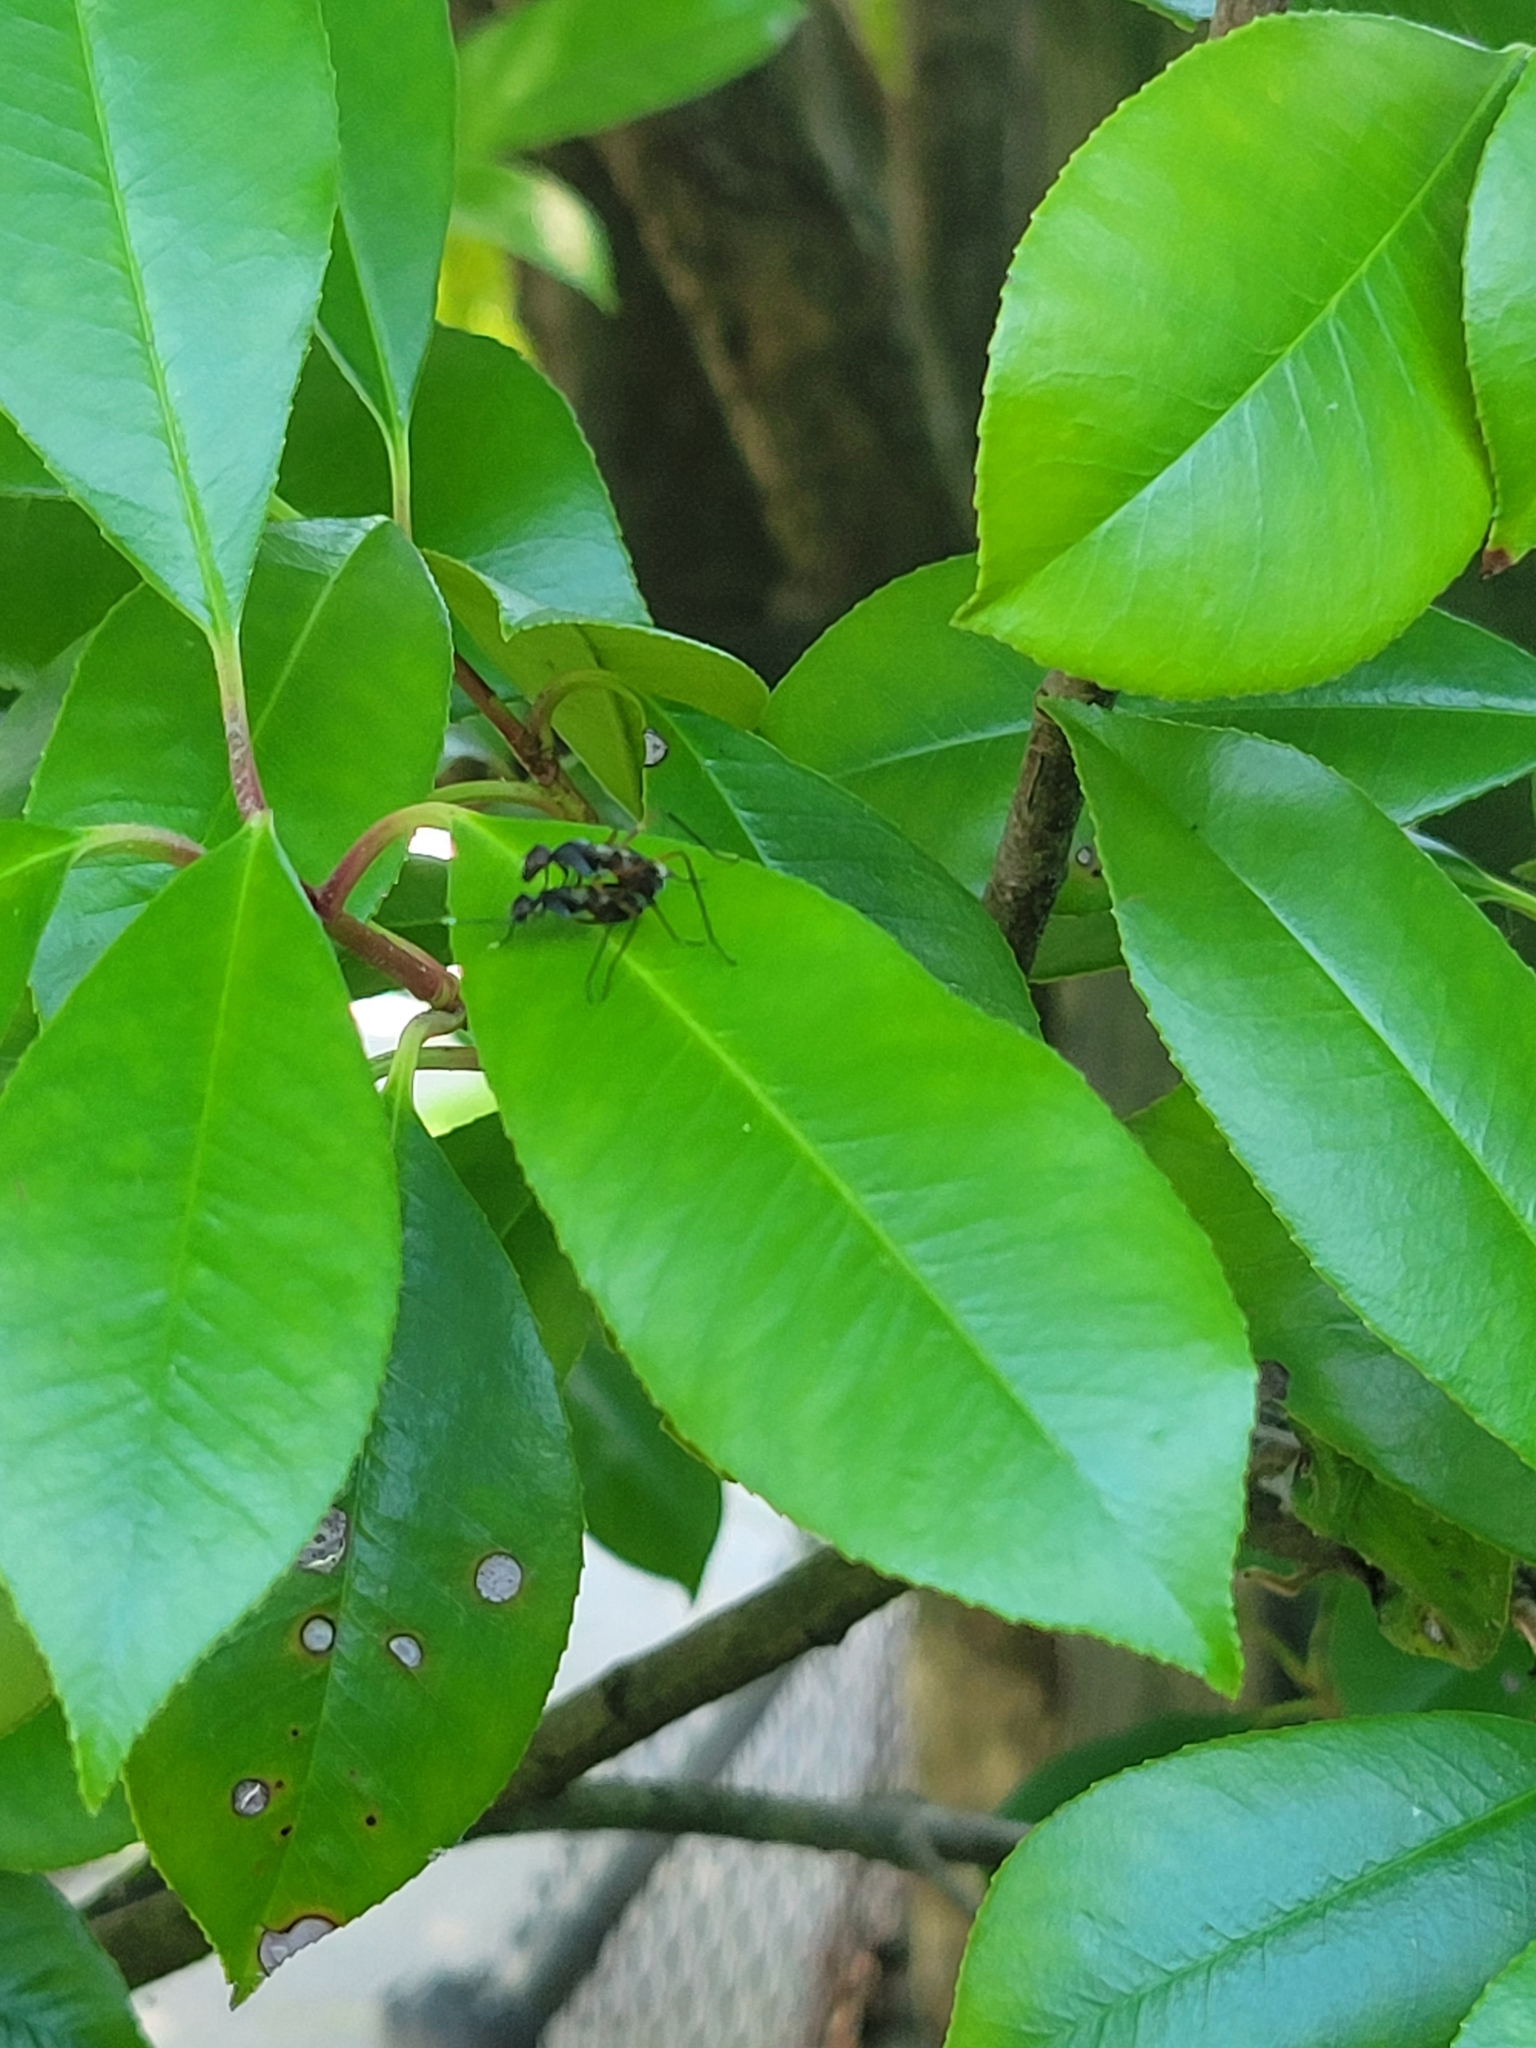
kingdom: Animalia
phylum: Arthropoda
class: Insecta
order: Diptera
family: Micropezidae
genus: Taeniaptera
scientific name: Taeniaptera trivittata
